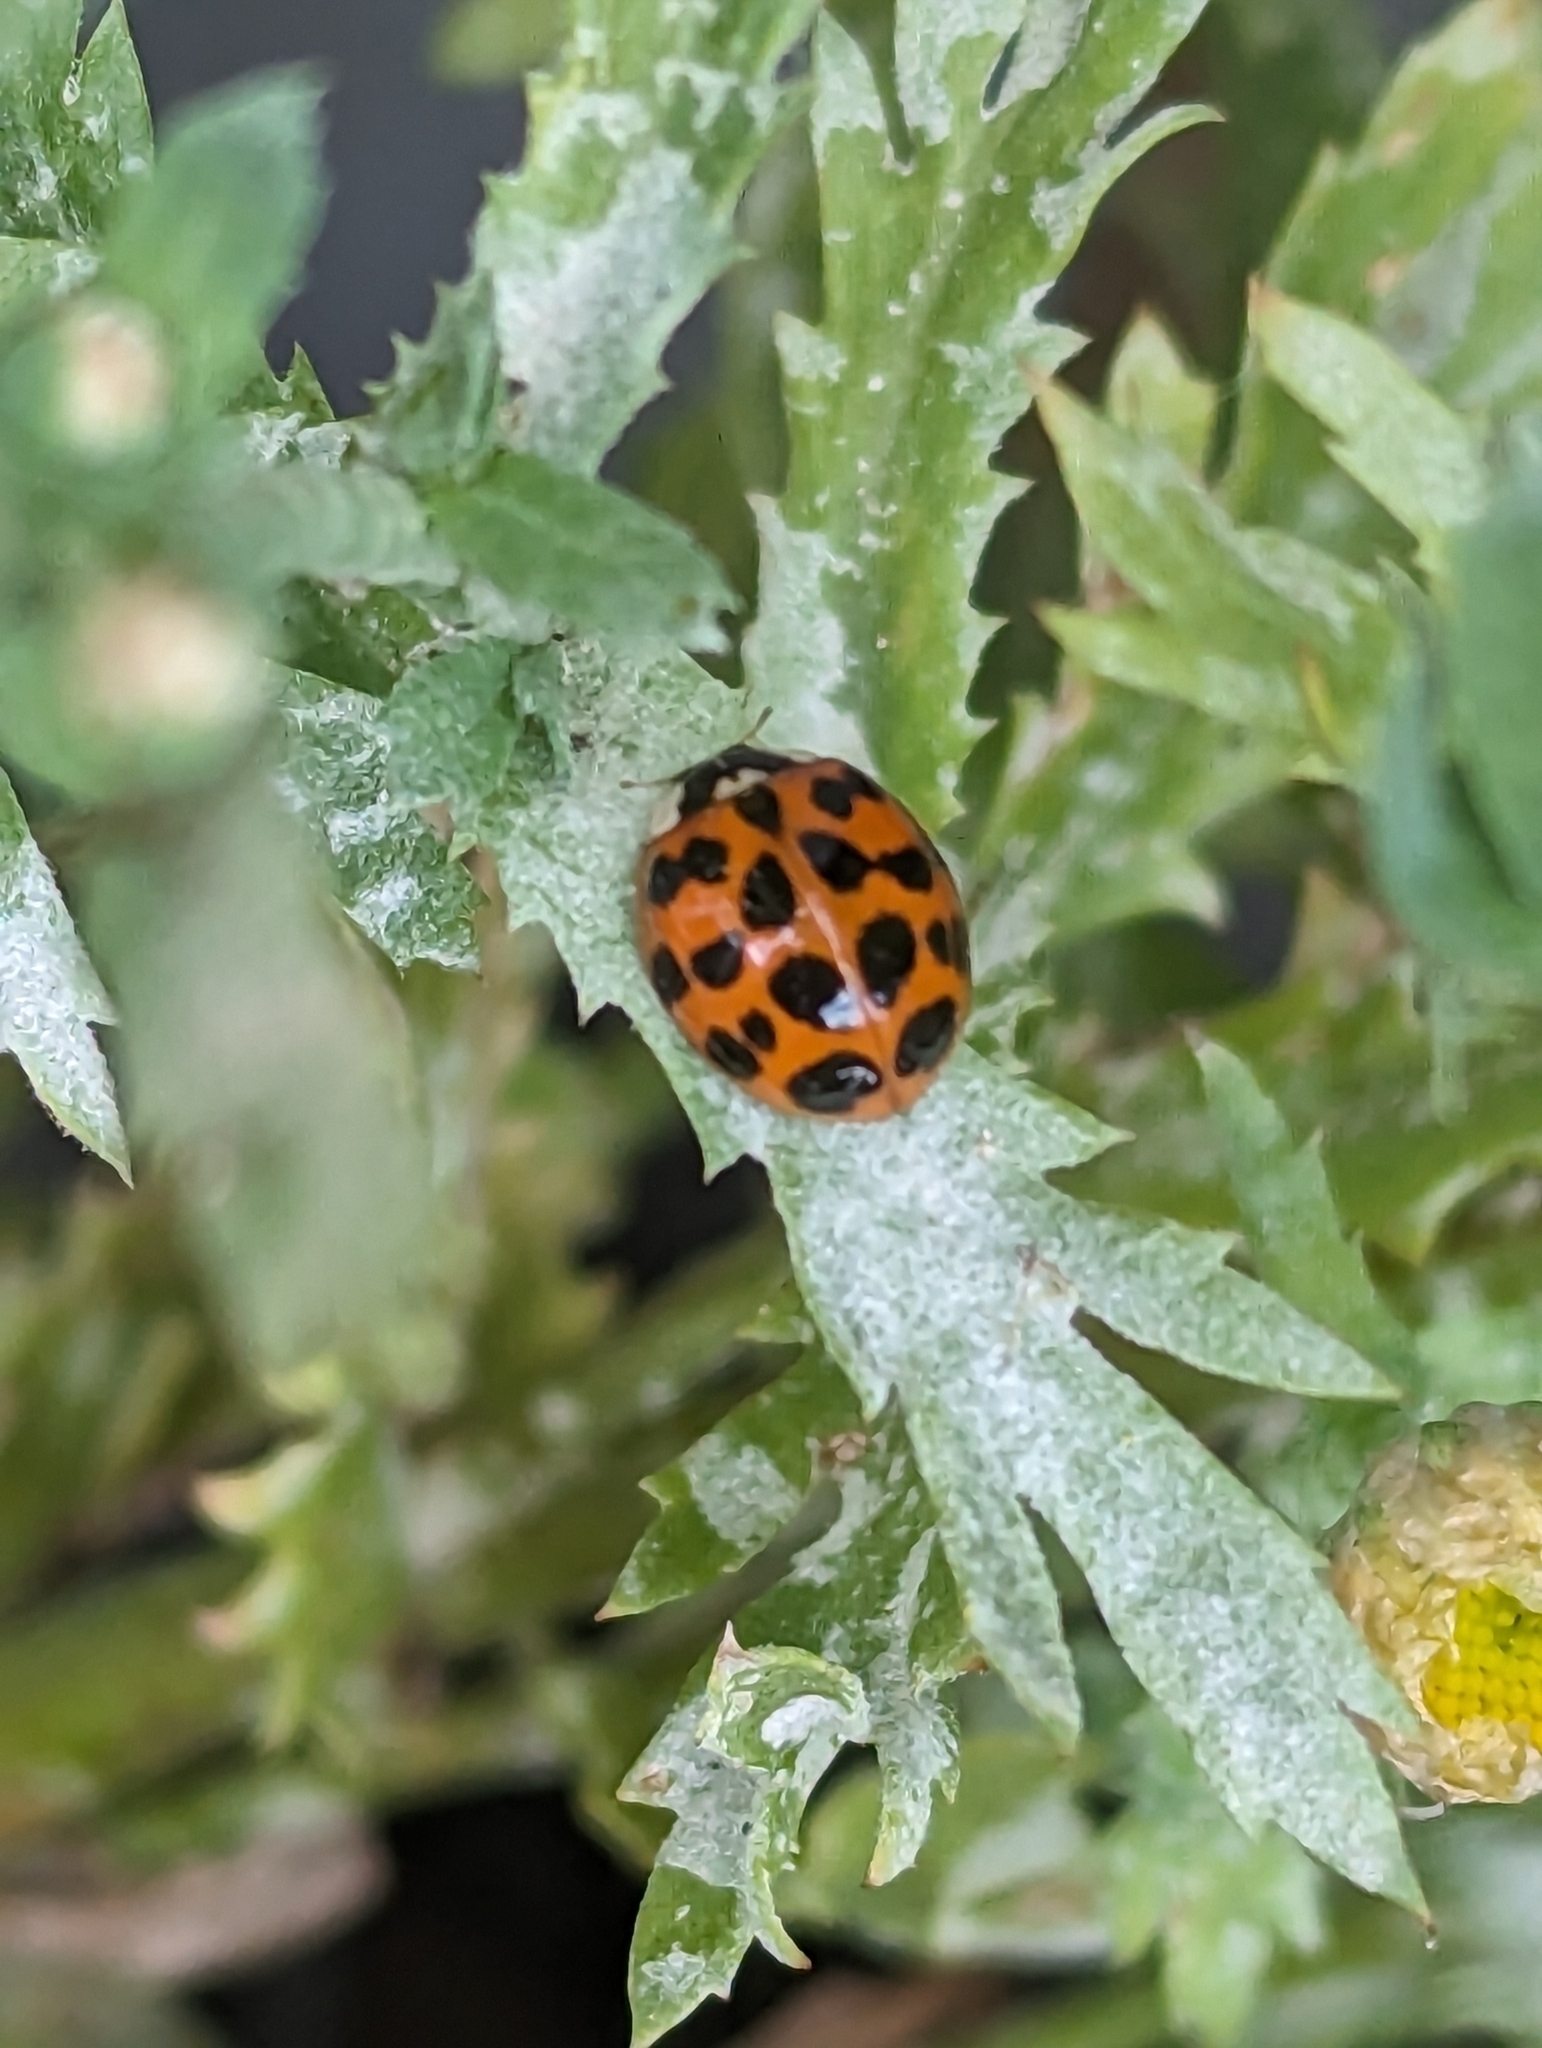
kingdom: Animalia
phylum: Arthropoda
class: Insecta
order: Coleoptera
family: Coccinellidae
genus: Harmonia
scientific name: Harmonia axyridis
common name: Harlequin ladybird
